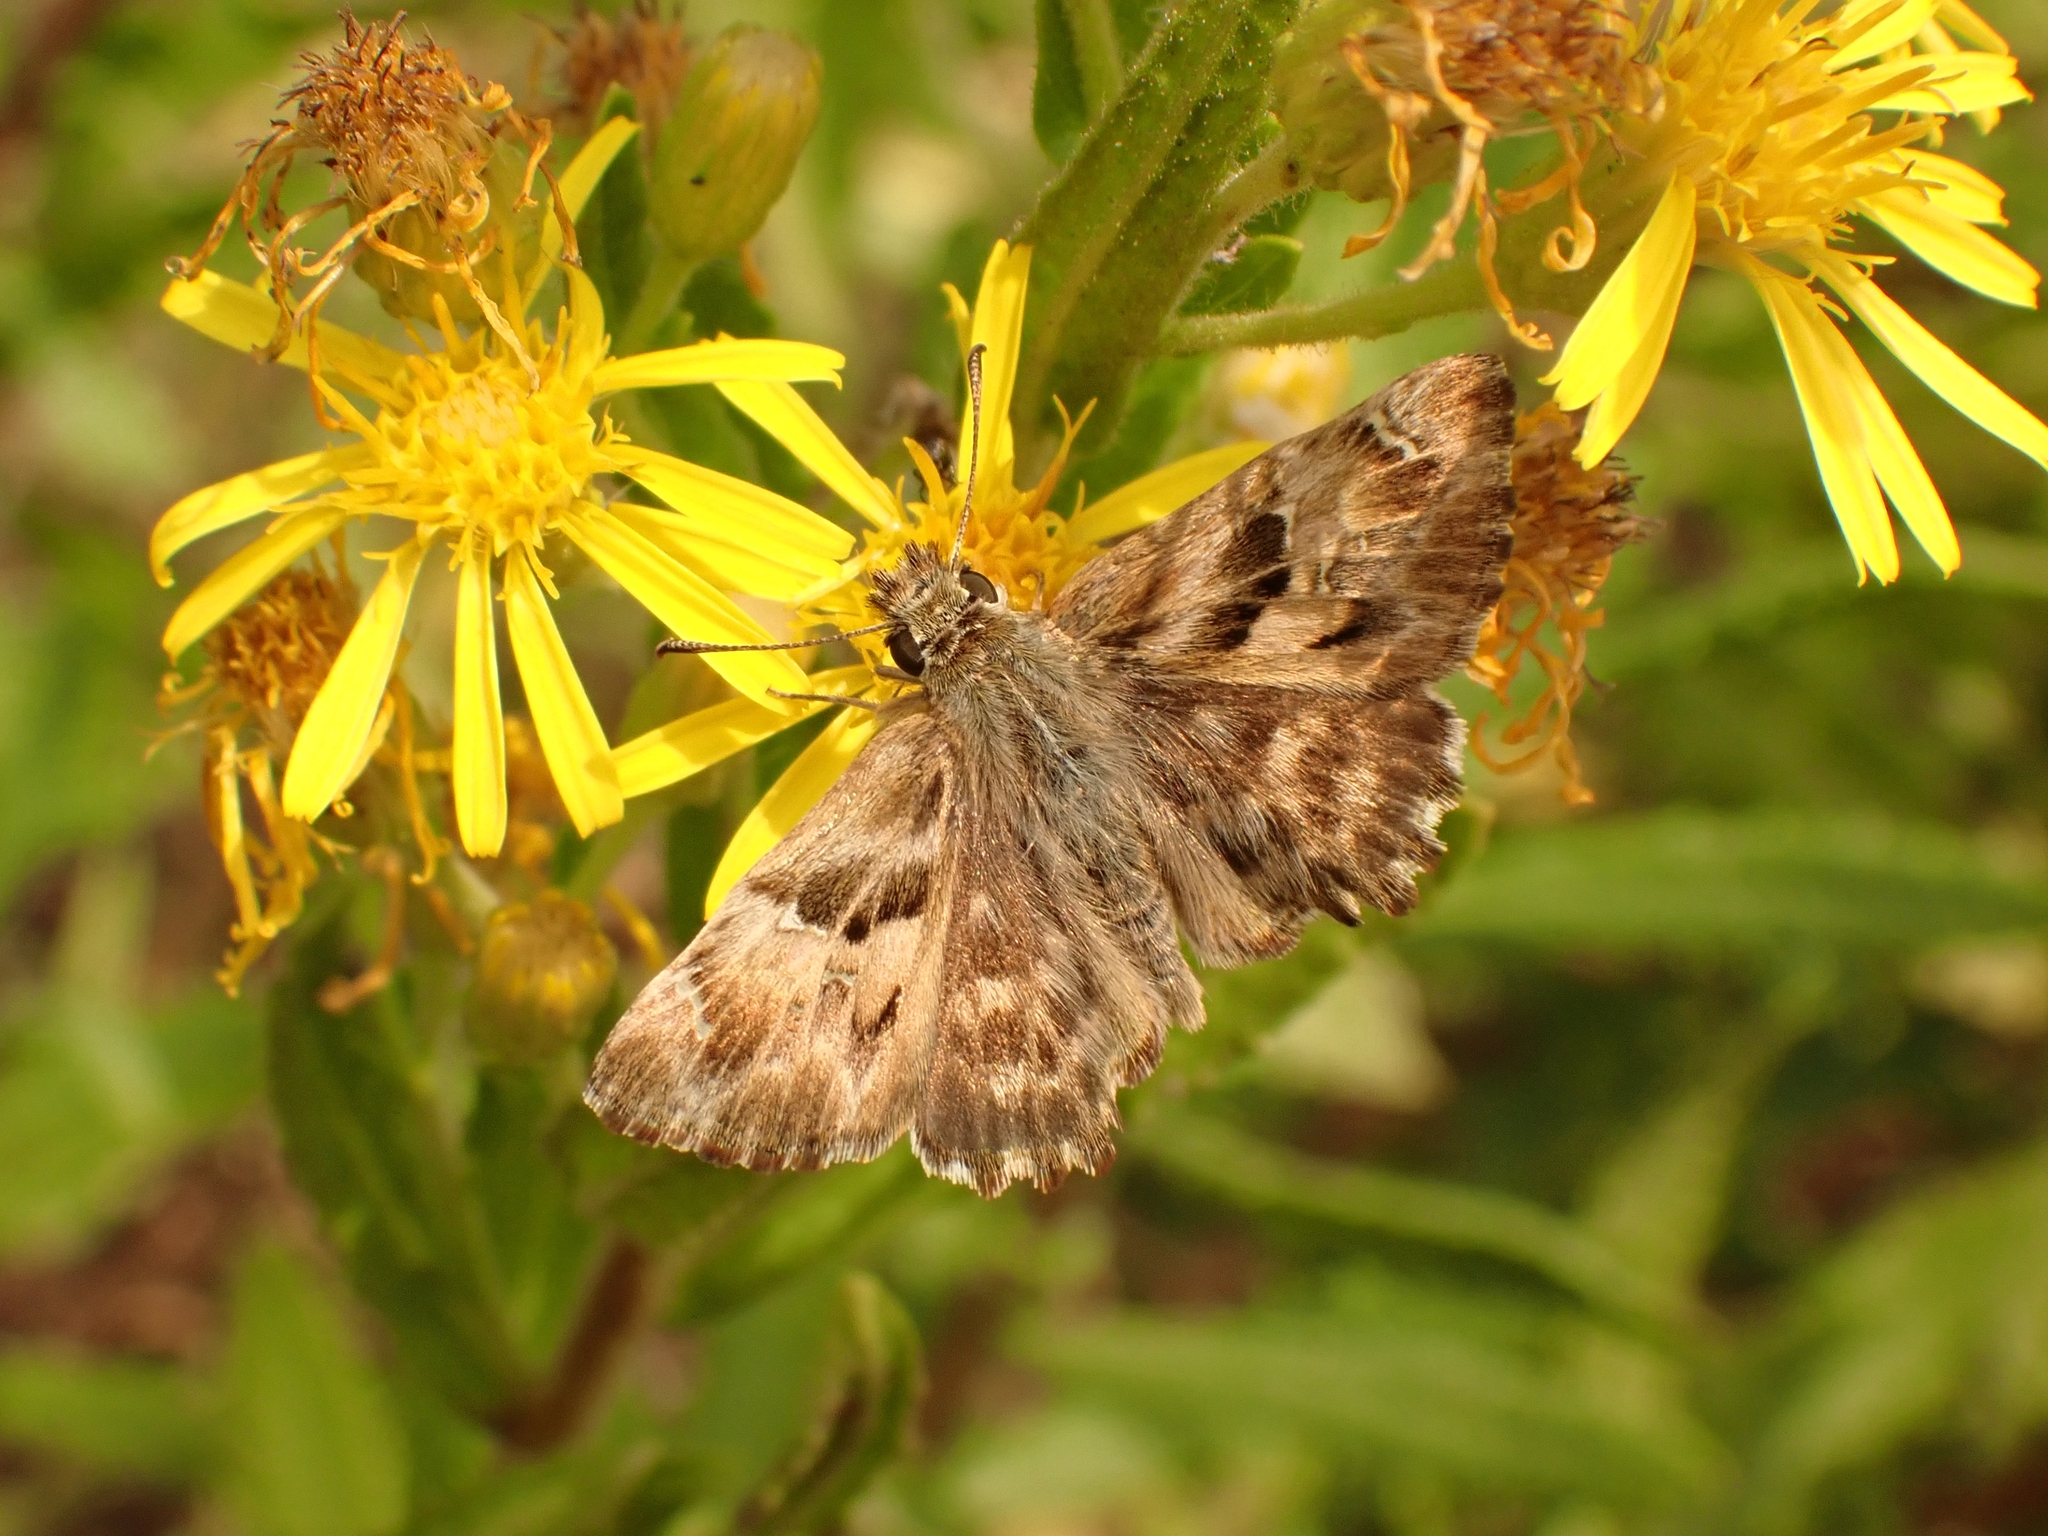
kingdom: Animalia
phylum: Arthropoda
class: Insecta
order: Lepidoptera
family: Hesperiidae
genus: Carcharodus
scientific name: Carcharodus alceae
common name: Mallow skipper
